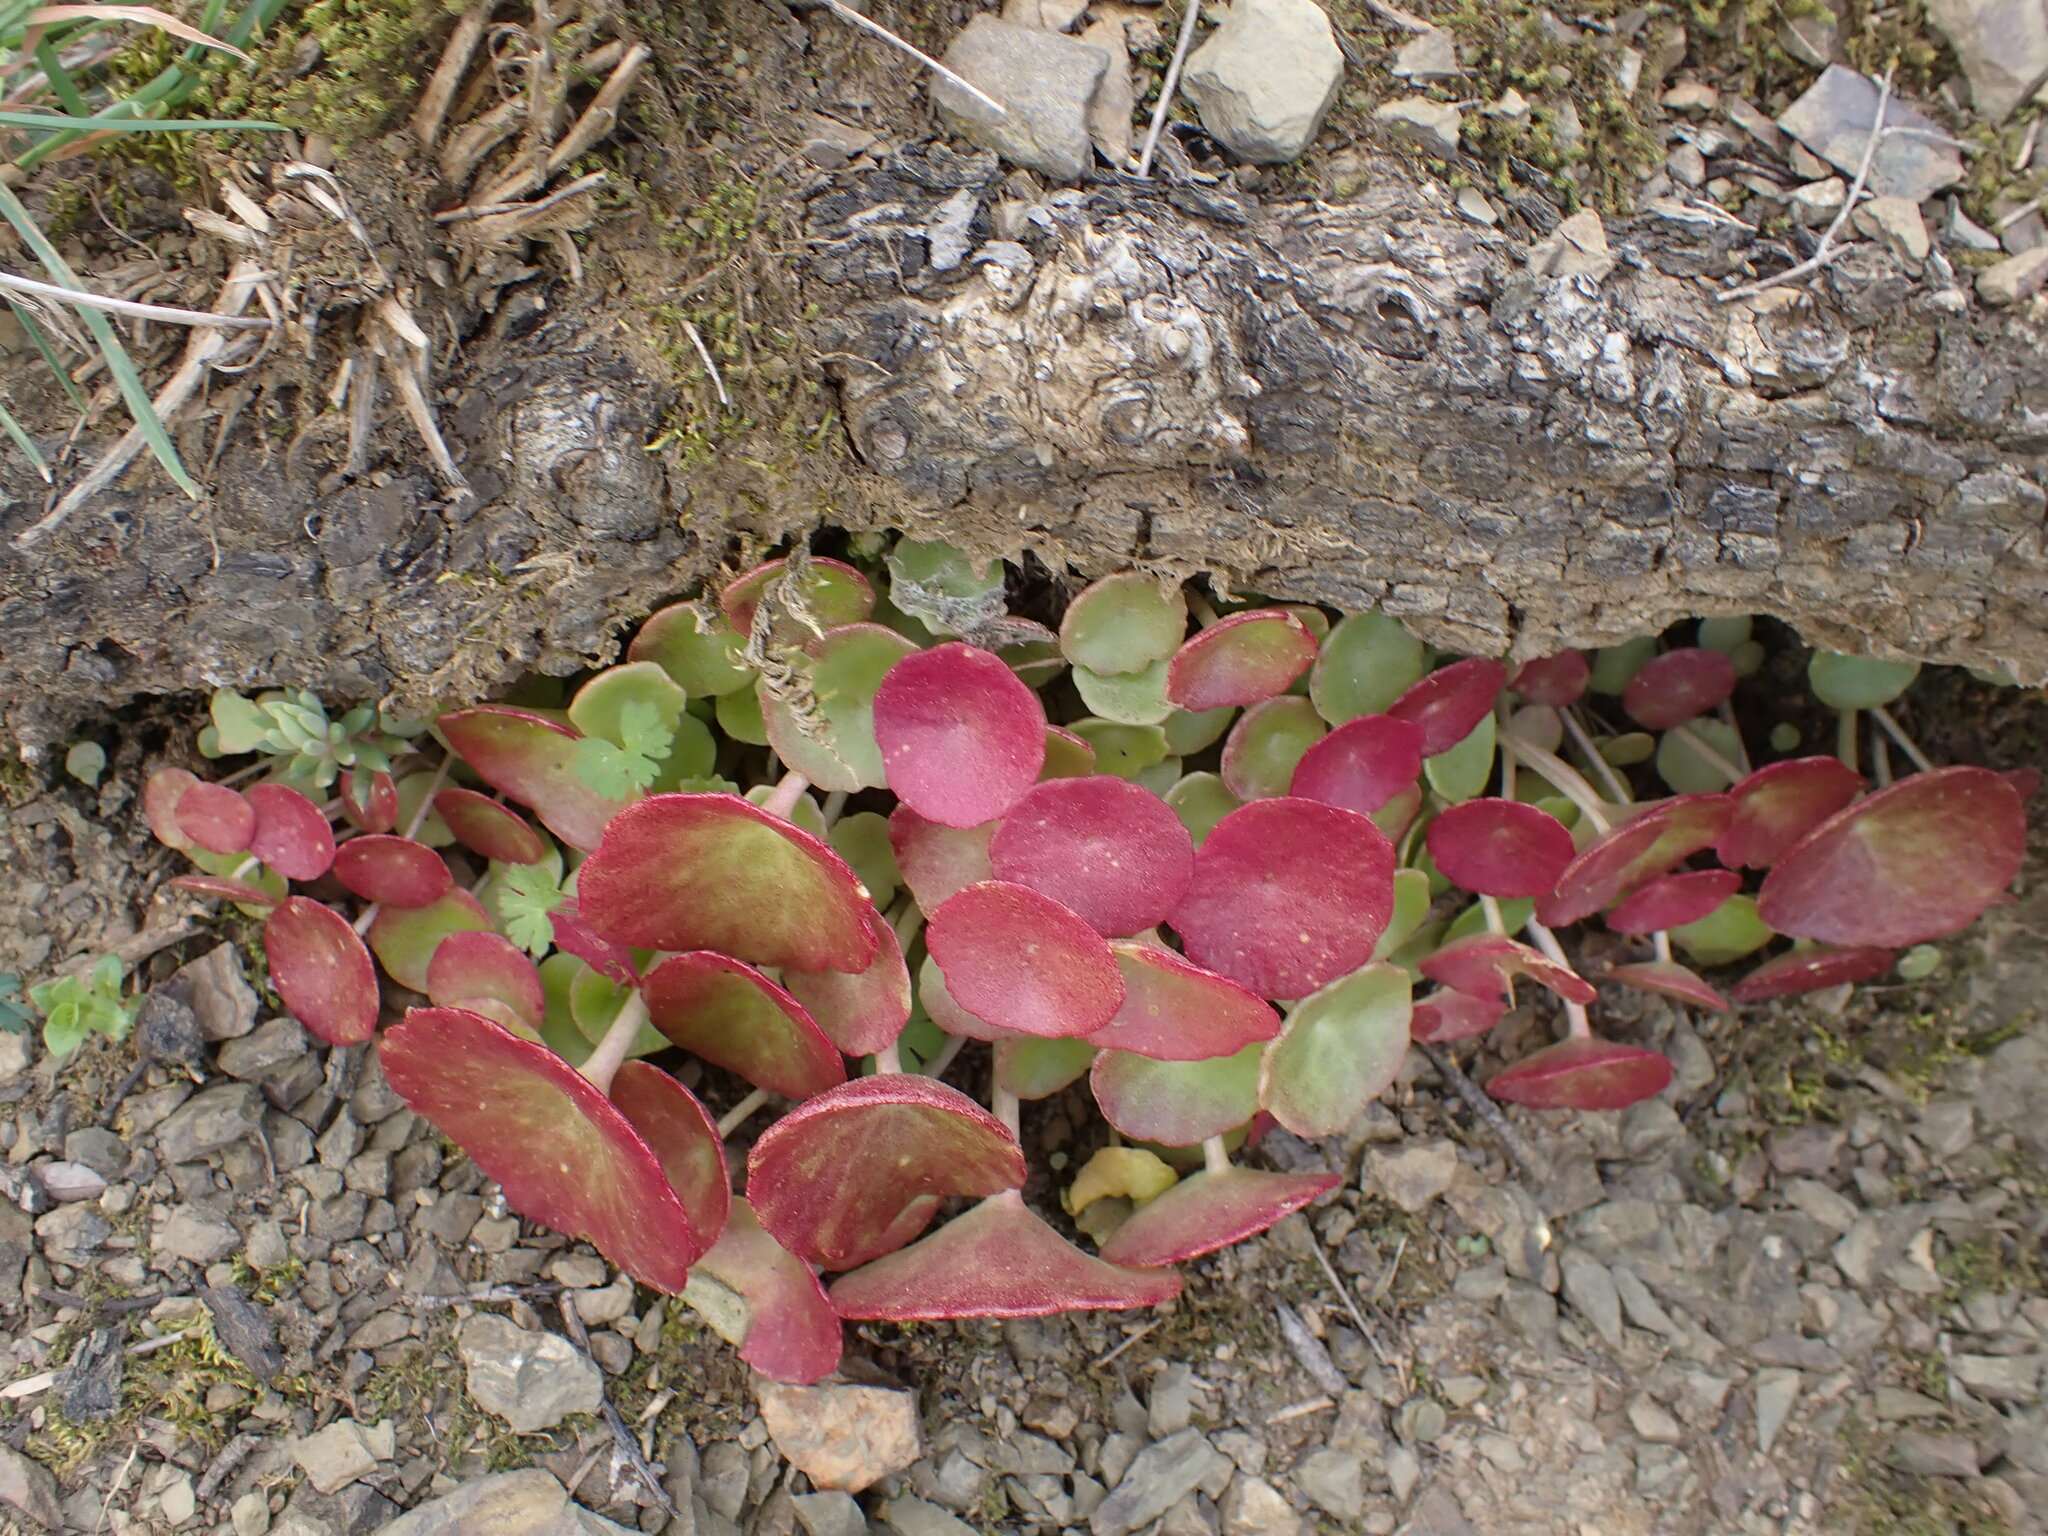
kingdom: Plantae
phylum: Tracheophyta
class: Magnoliopsida
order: Saxifragales
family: Crassulaceae
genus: Umbilicus
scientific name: Umbilicus rupestris
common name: Navelwort
